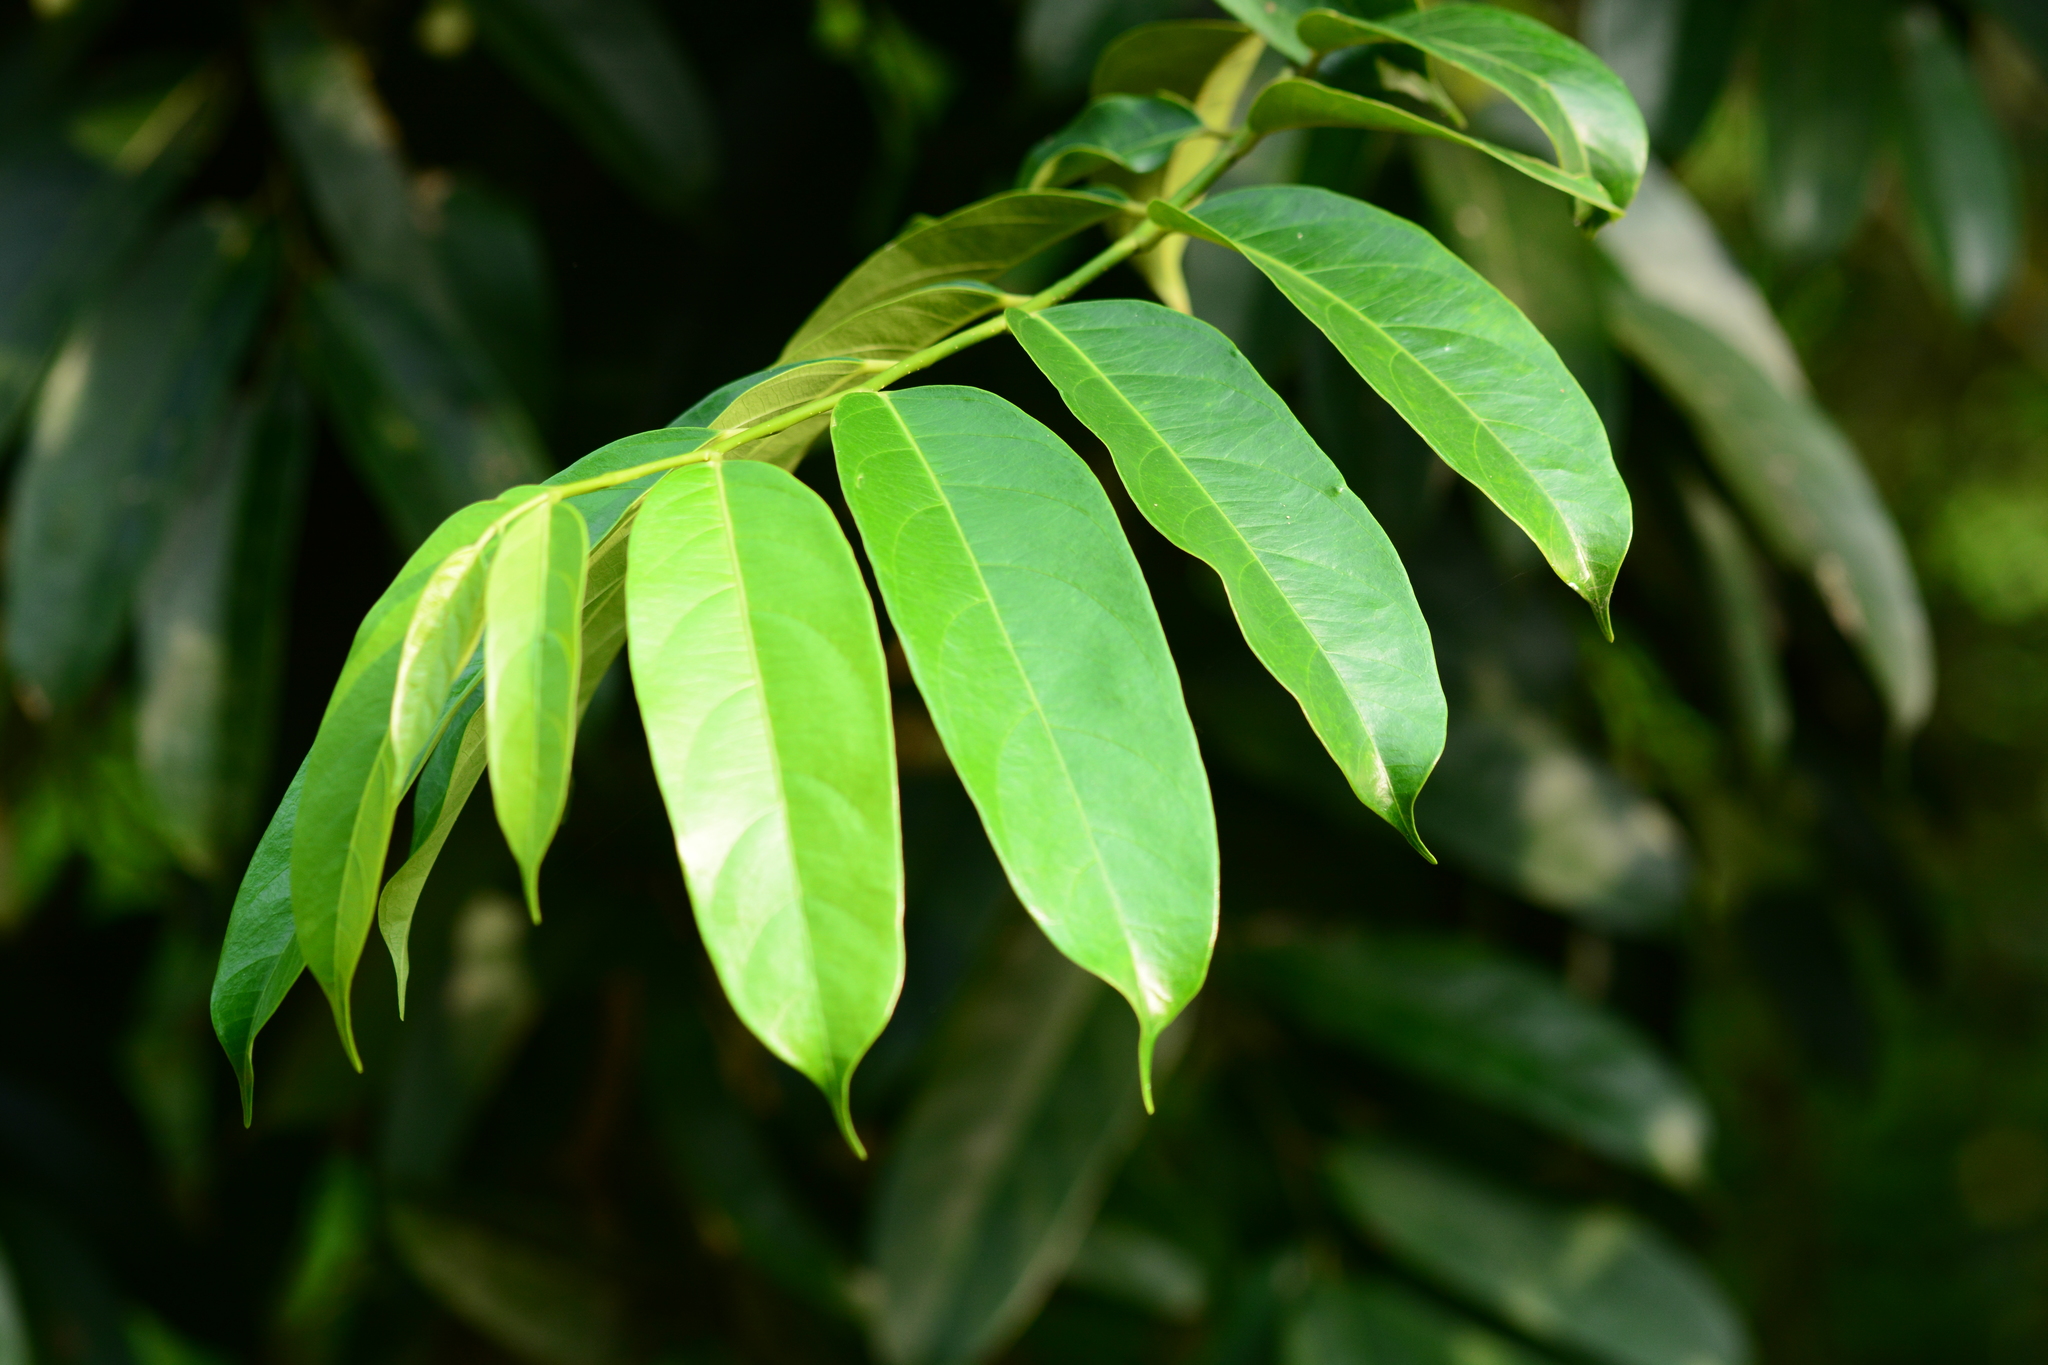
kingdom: Plantae
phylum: Tracheophyta
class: Magnoliopsida
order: Malpighiales
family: Achariaceae
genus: Gynocardia
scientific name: Gynocardia odorata
